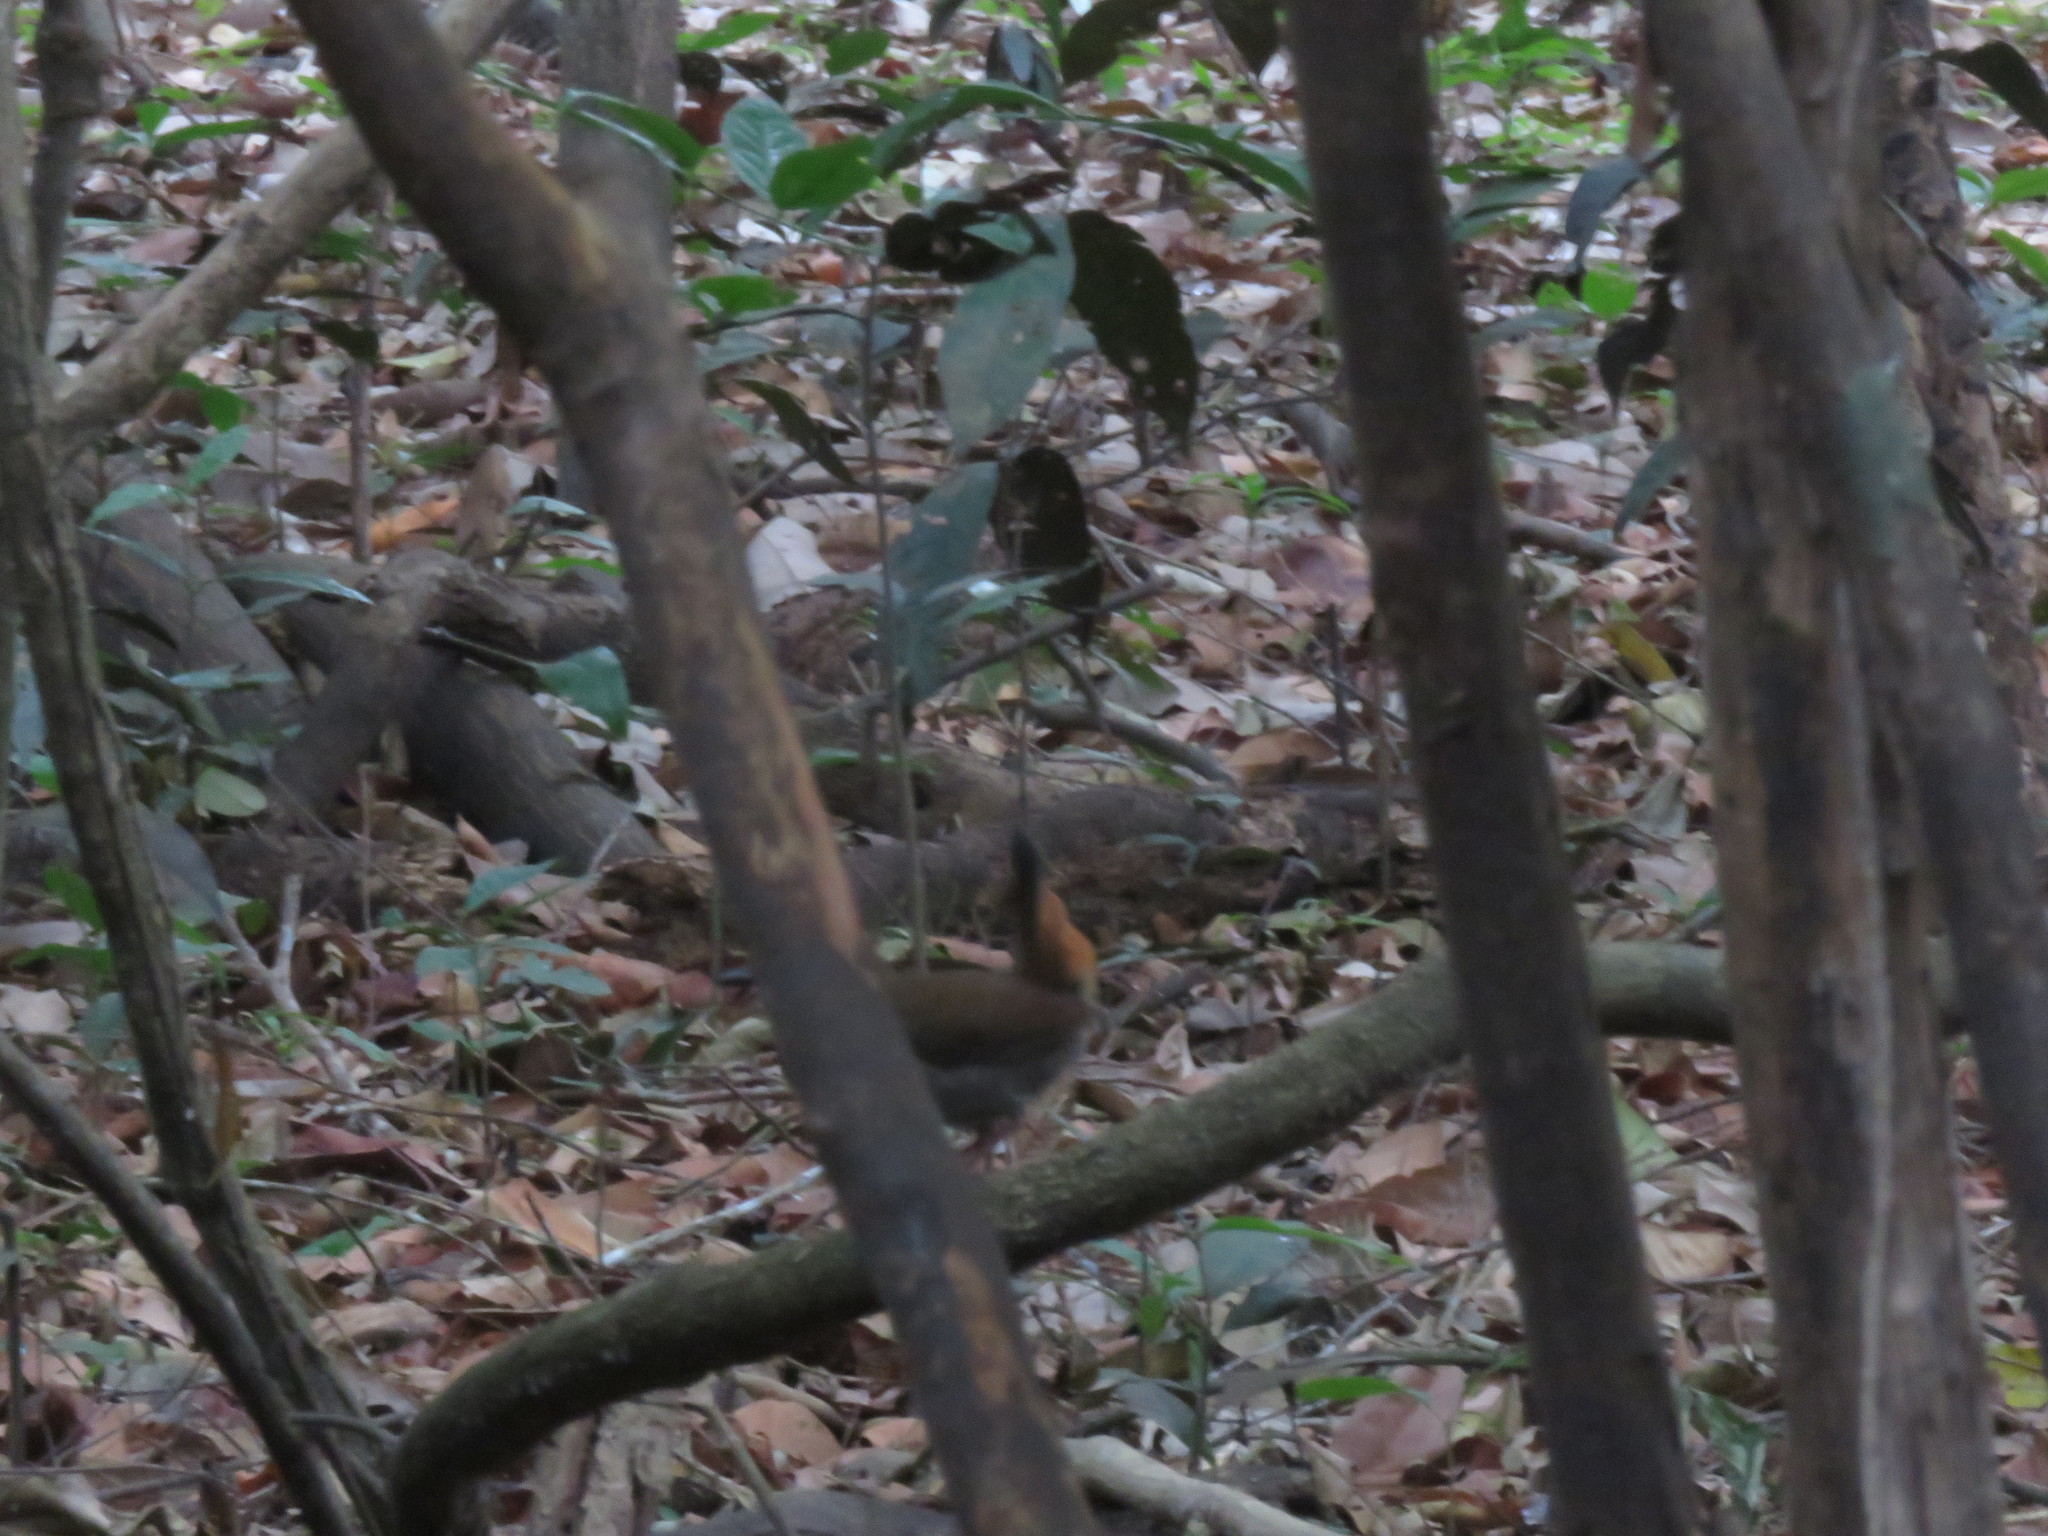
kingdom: Animalia
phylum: Chordata
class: Aves
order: Passeriformes
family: Formicariidae
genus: Formicarius
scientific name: Formicarius analis
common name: Black-faced antthrush
